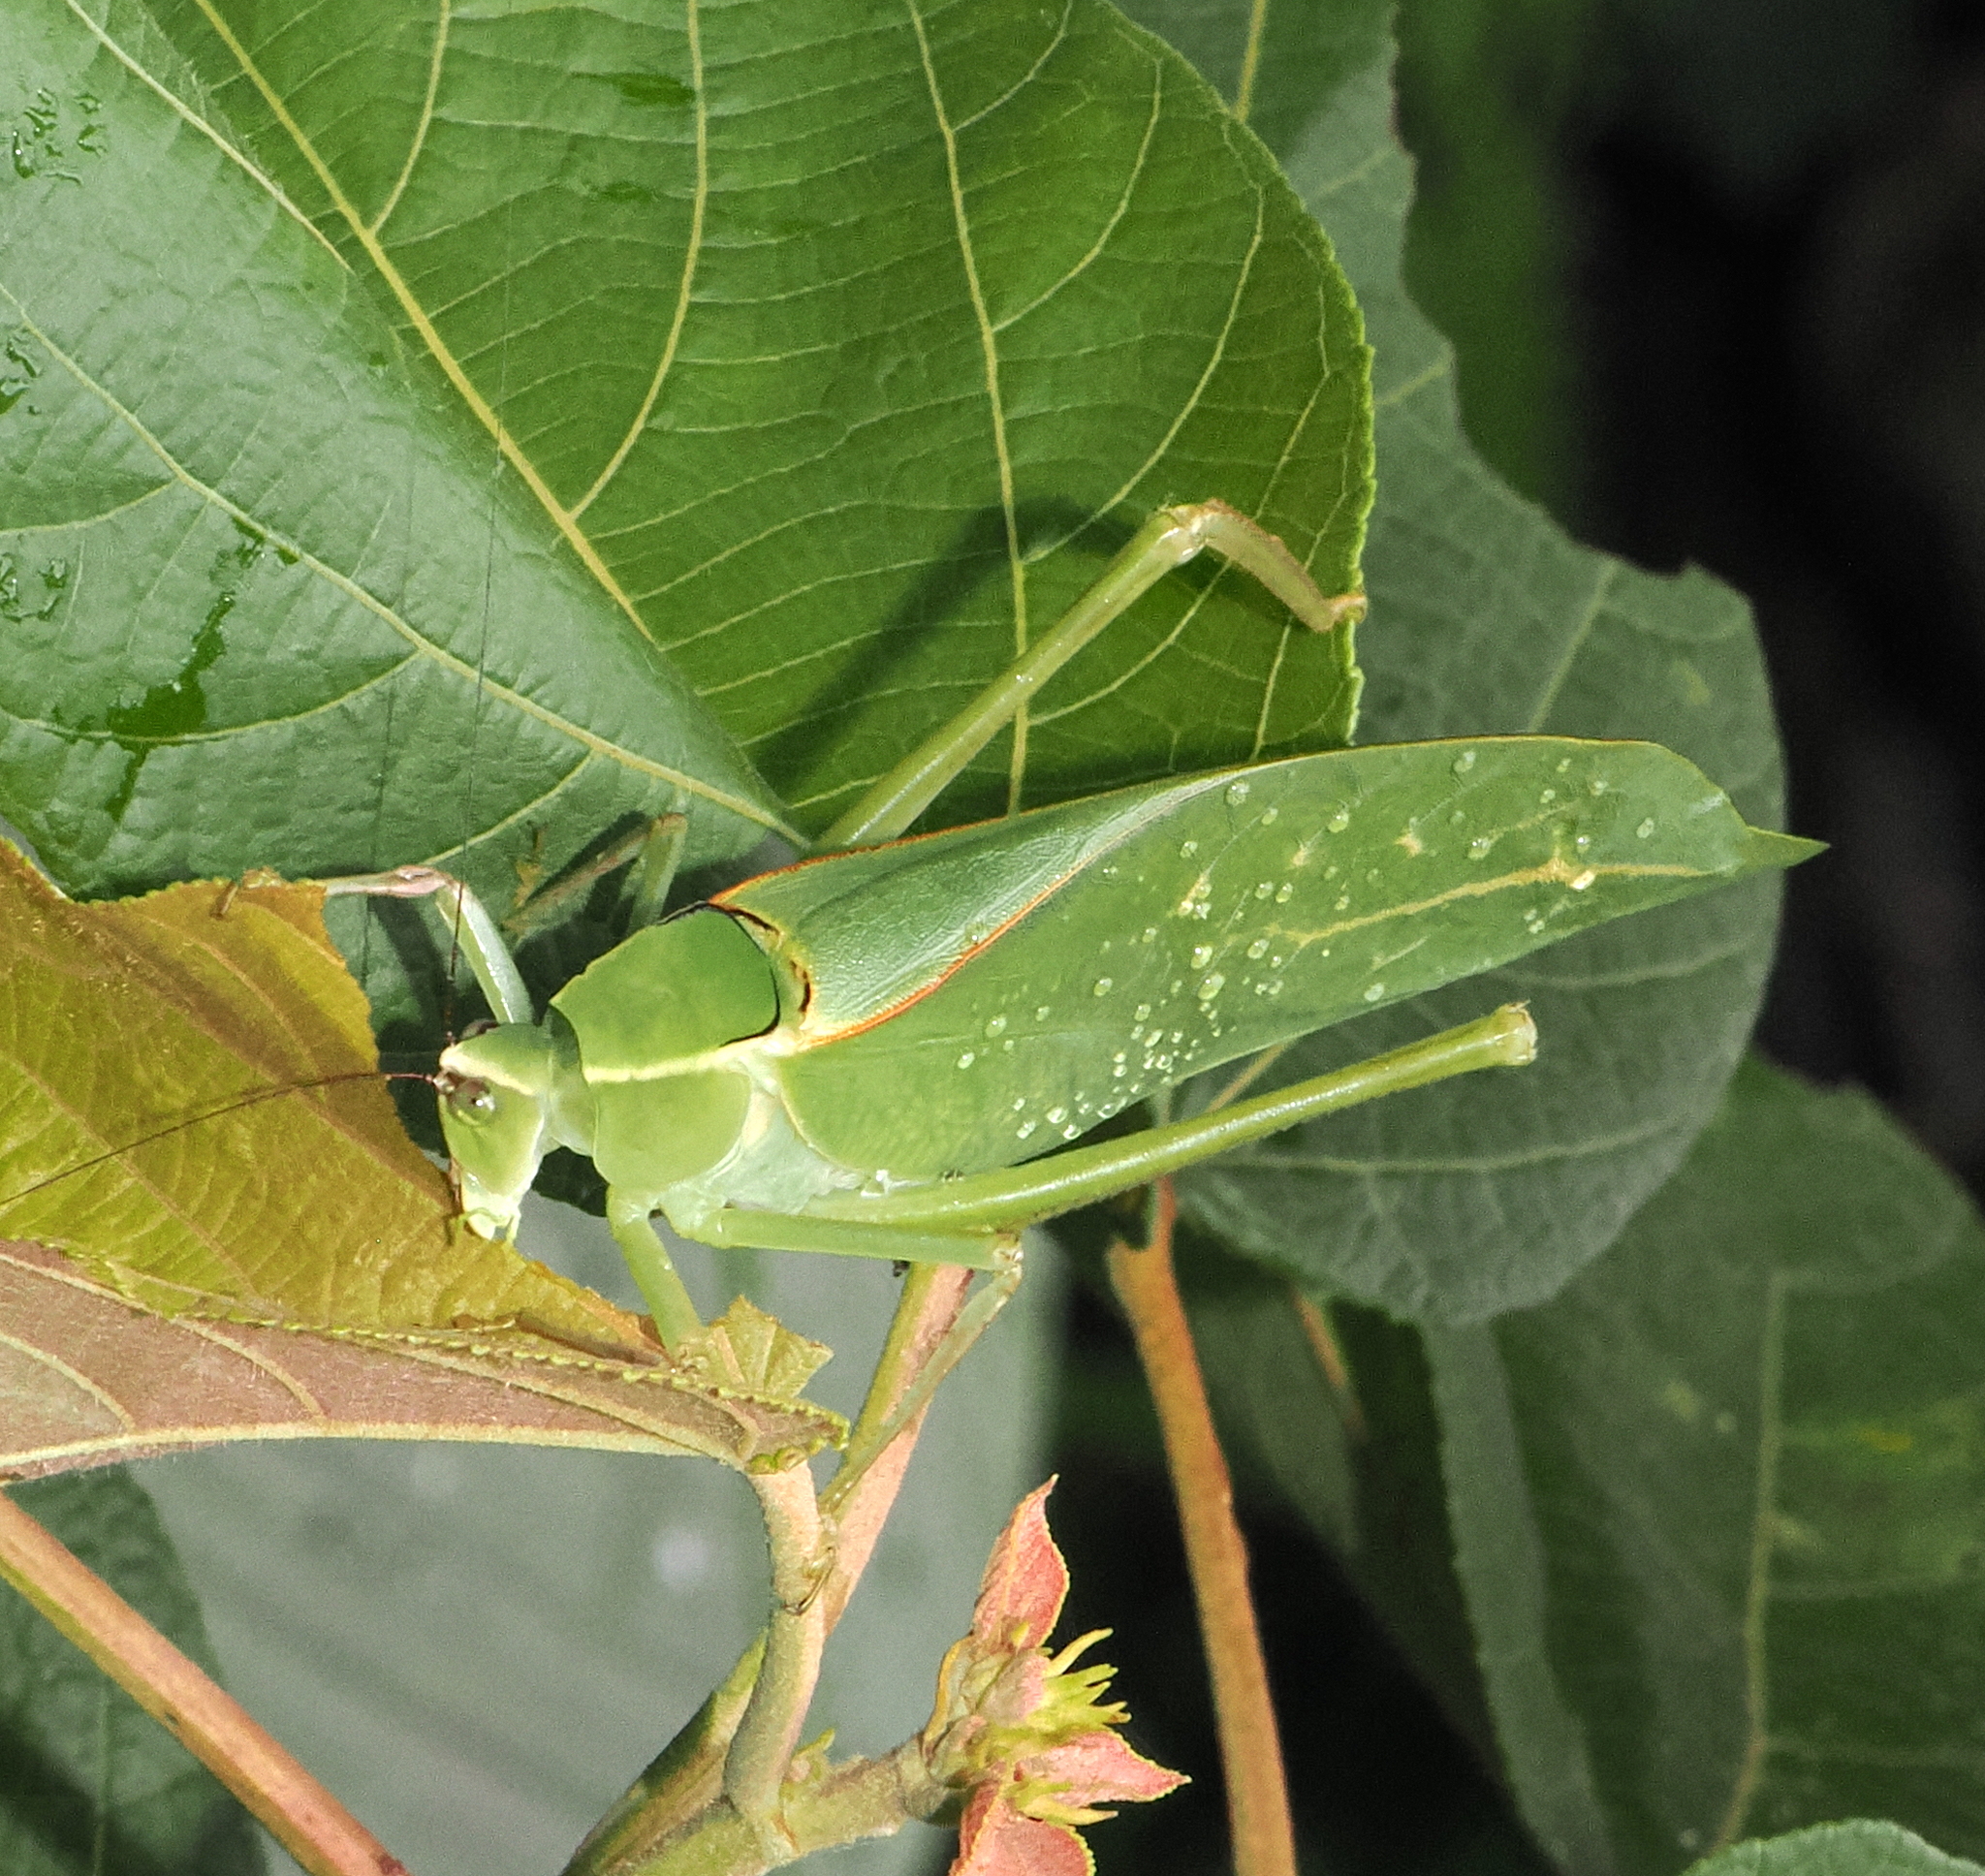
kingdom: Animalia
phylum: Arthropoda
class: Insecta
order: Orthoptera
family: Tettigoniidae
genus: Stilpnochlora
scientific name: Stilpnochlora aztecoides
